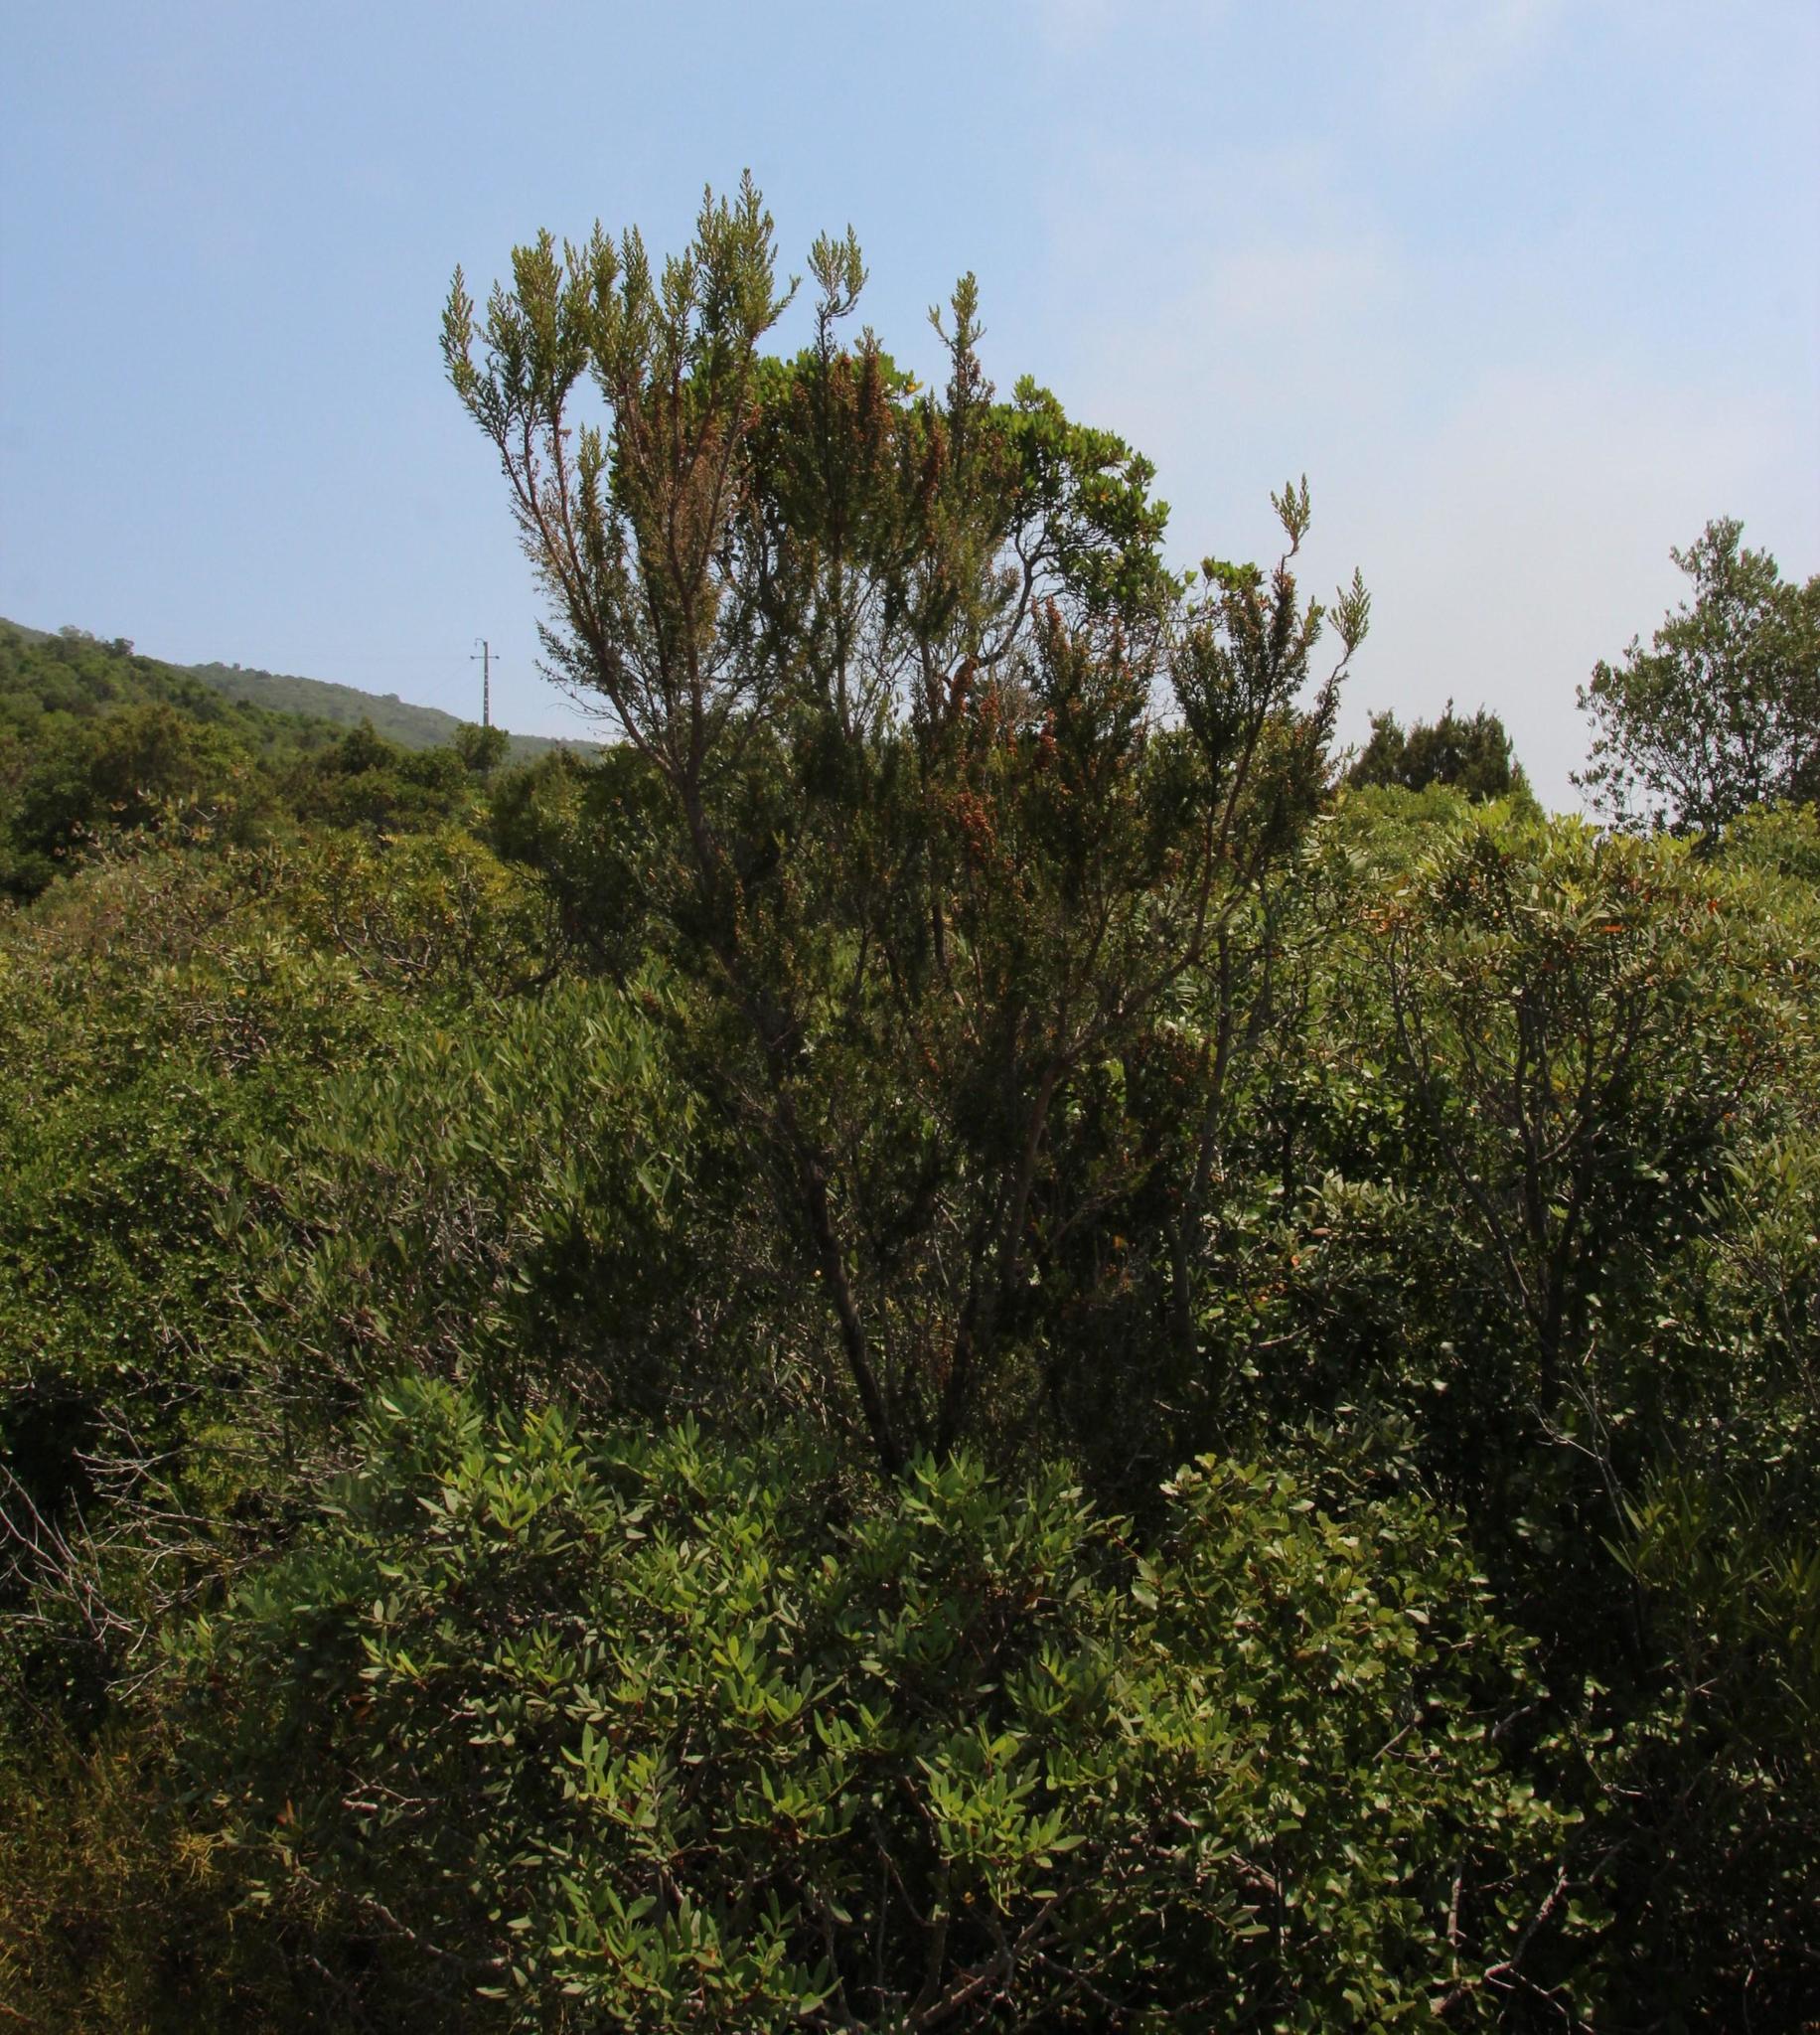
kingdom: Plantae
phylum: Tracheophyta
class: Magnoliopsida
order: Ericales
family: Ericaceae
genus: Erica
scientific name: Erica arborea
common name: Tree heath
